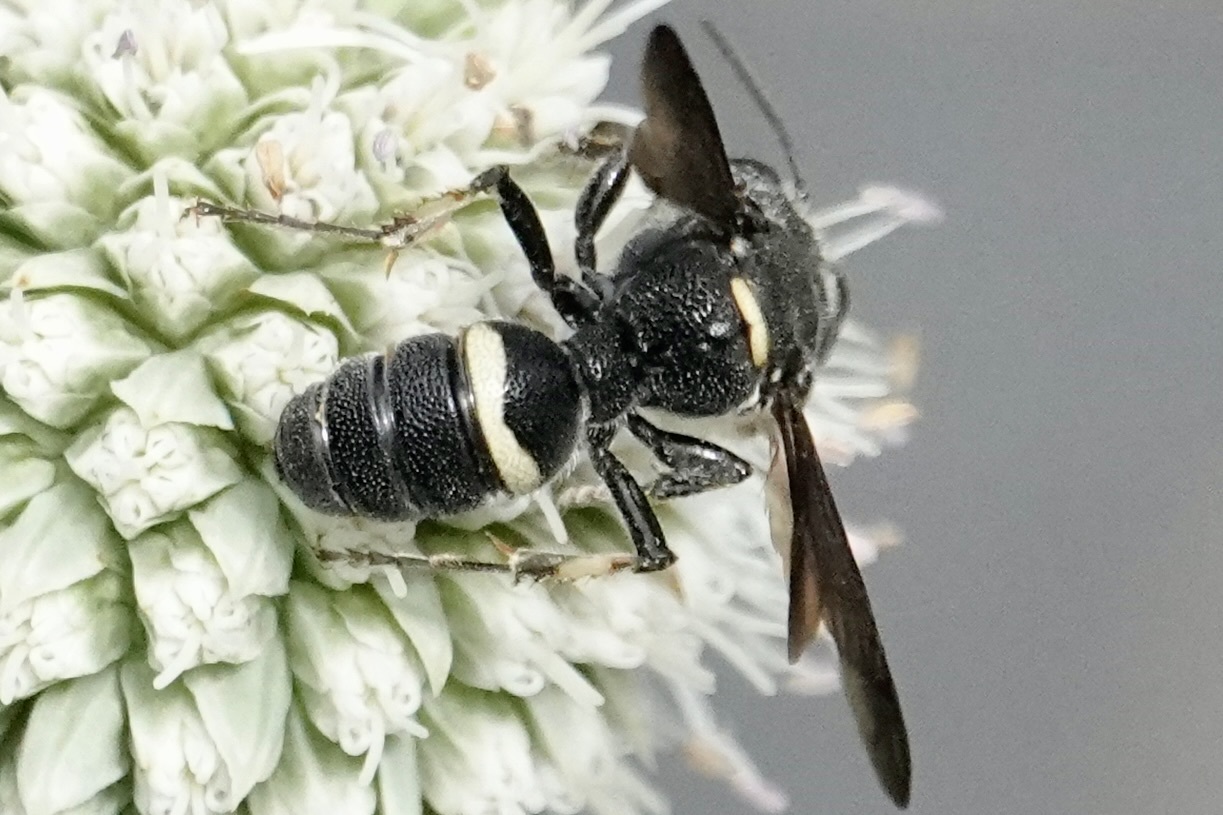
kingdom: Animalia
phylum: Arthropoda
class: Insecta
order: Hymenoptera
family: Crabronidae
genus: Cerceris
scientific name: Cerceris fumipennis
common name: Smokey-winged beetle bandit wasp
